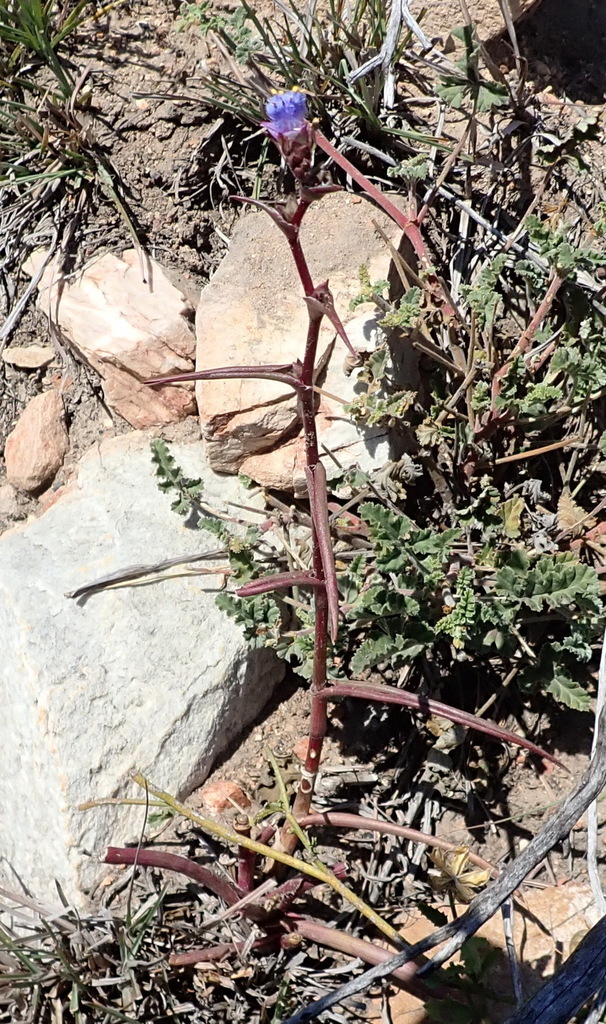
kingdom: Plantae
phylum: Tracheophyta
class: Liliopsida
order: Commelinales
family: Commelinaceae
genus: Cyanotis
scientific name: Cyanotis speciosa
